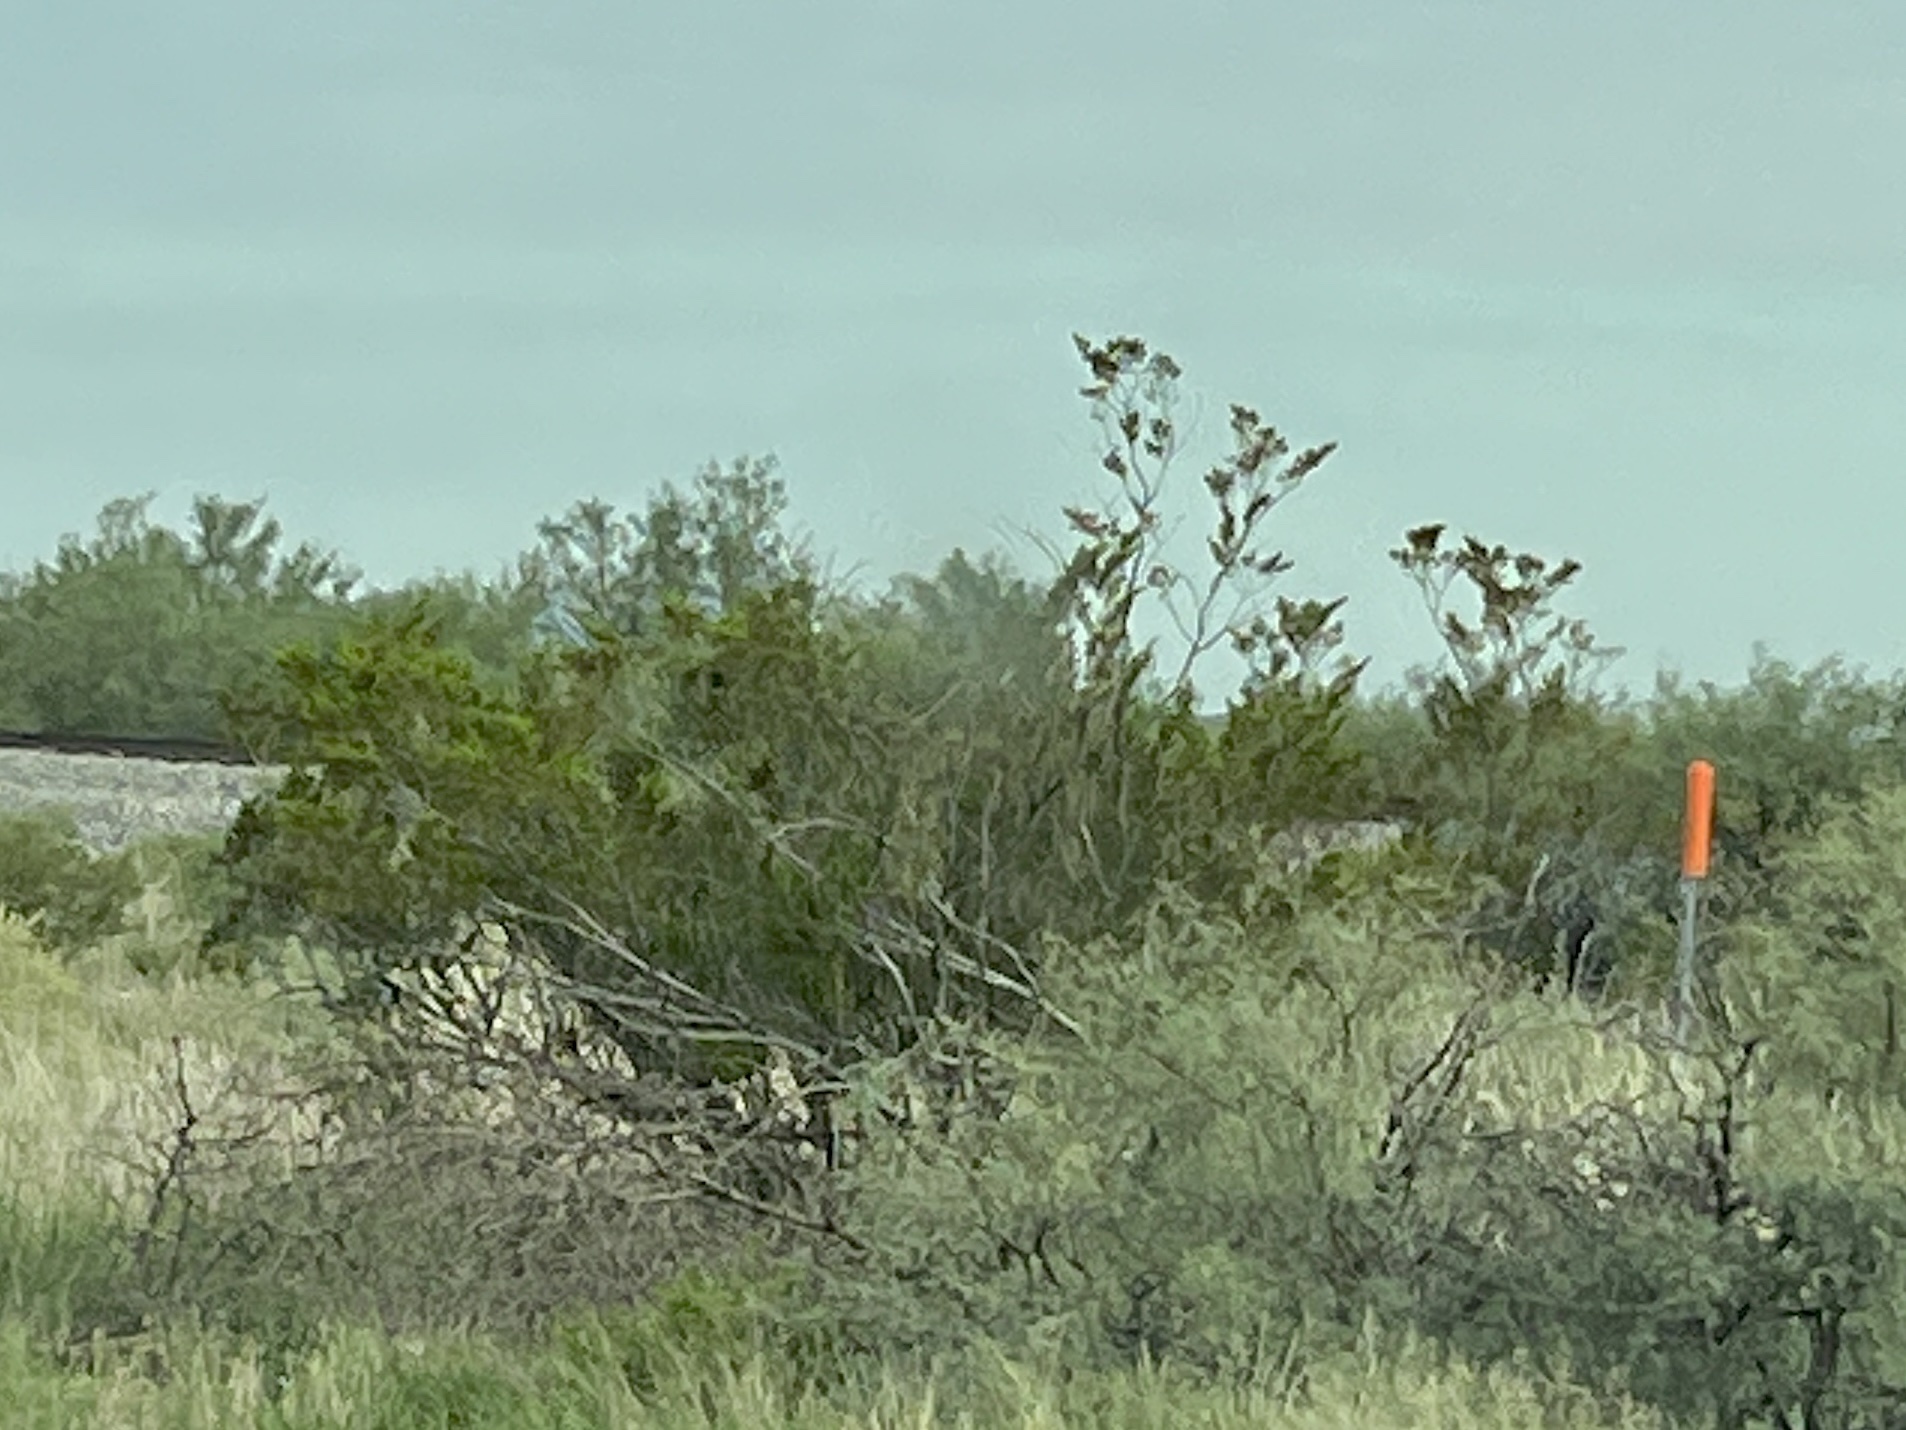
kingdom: Plantae
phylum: Tracheophyta
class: Magnoliopsida
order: Zygophyllales
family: Zygophyllaceae
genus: Larrea
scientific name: Larrea tridentata
